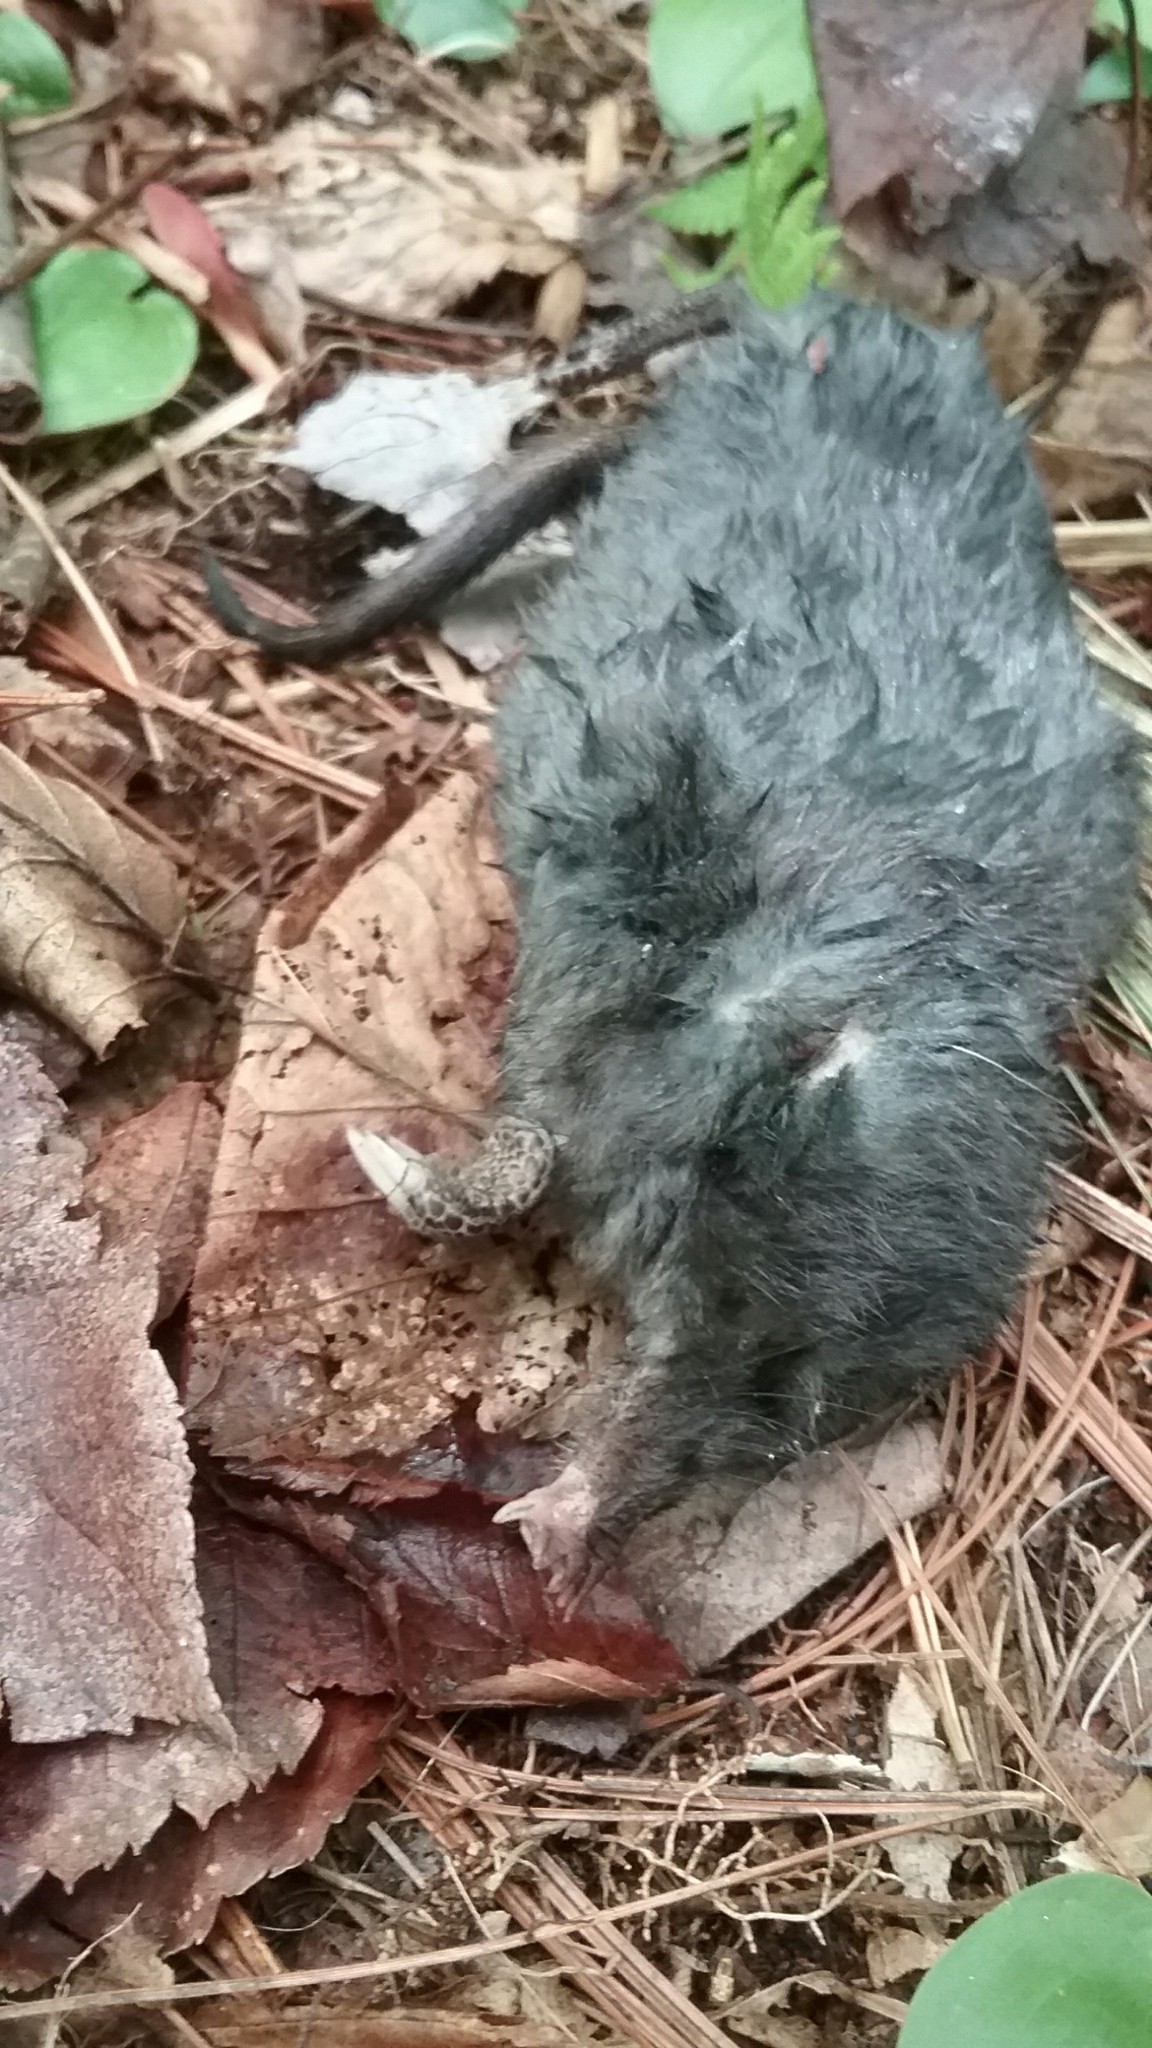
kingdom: Animalia
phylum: Chordata
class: Mammalia
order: Soricomorpha
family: Talpidae
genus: Condylura
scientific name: Condylura cristata
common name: Star-nosed mole
